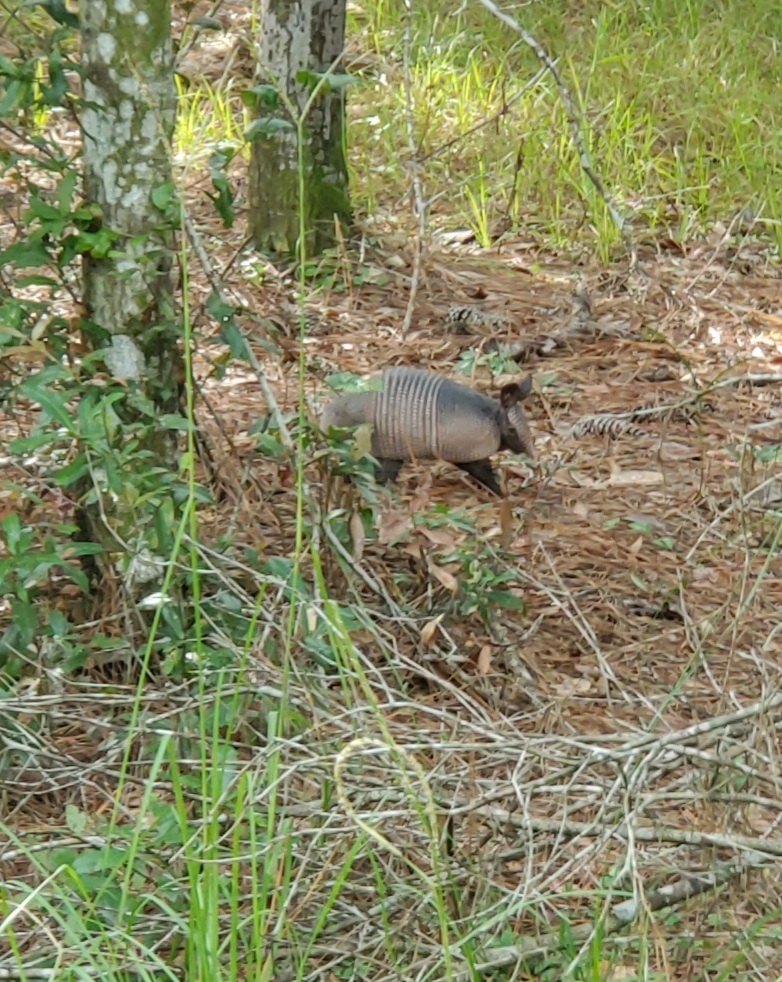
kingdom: Animalia
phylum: Chordata
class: Mammalia
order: Cingulata
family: Dasypodidae
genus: Dasypus
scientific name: Dasypus novemcinctus
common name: Nine-banded armadillo
